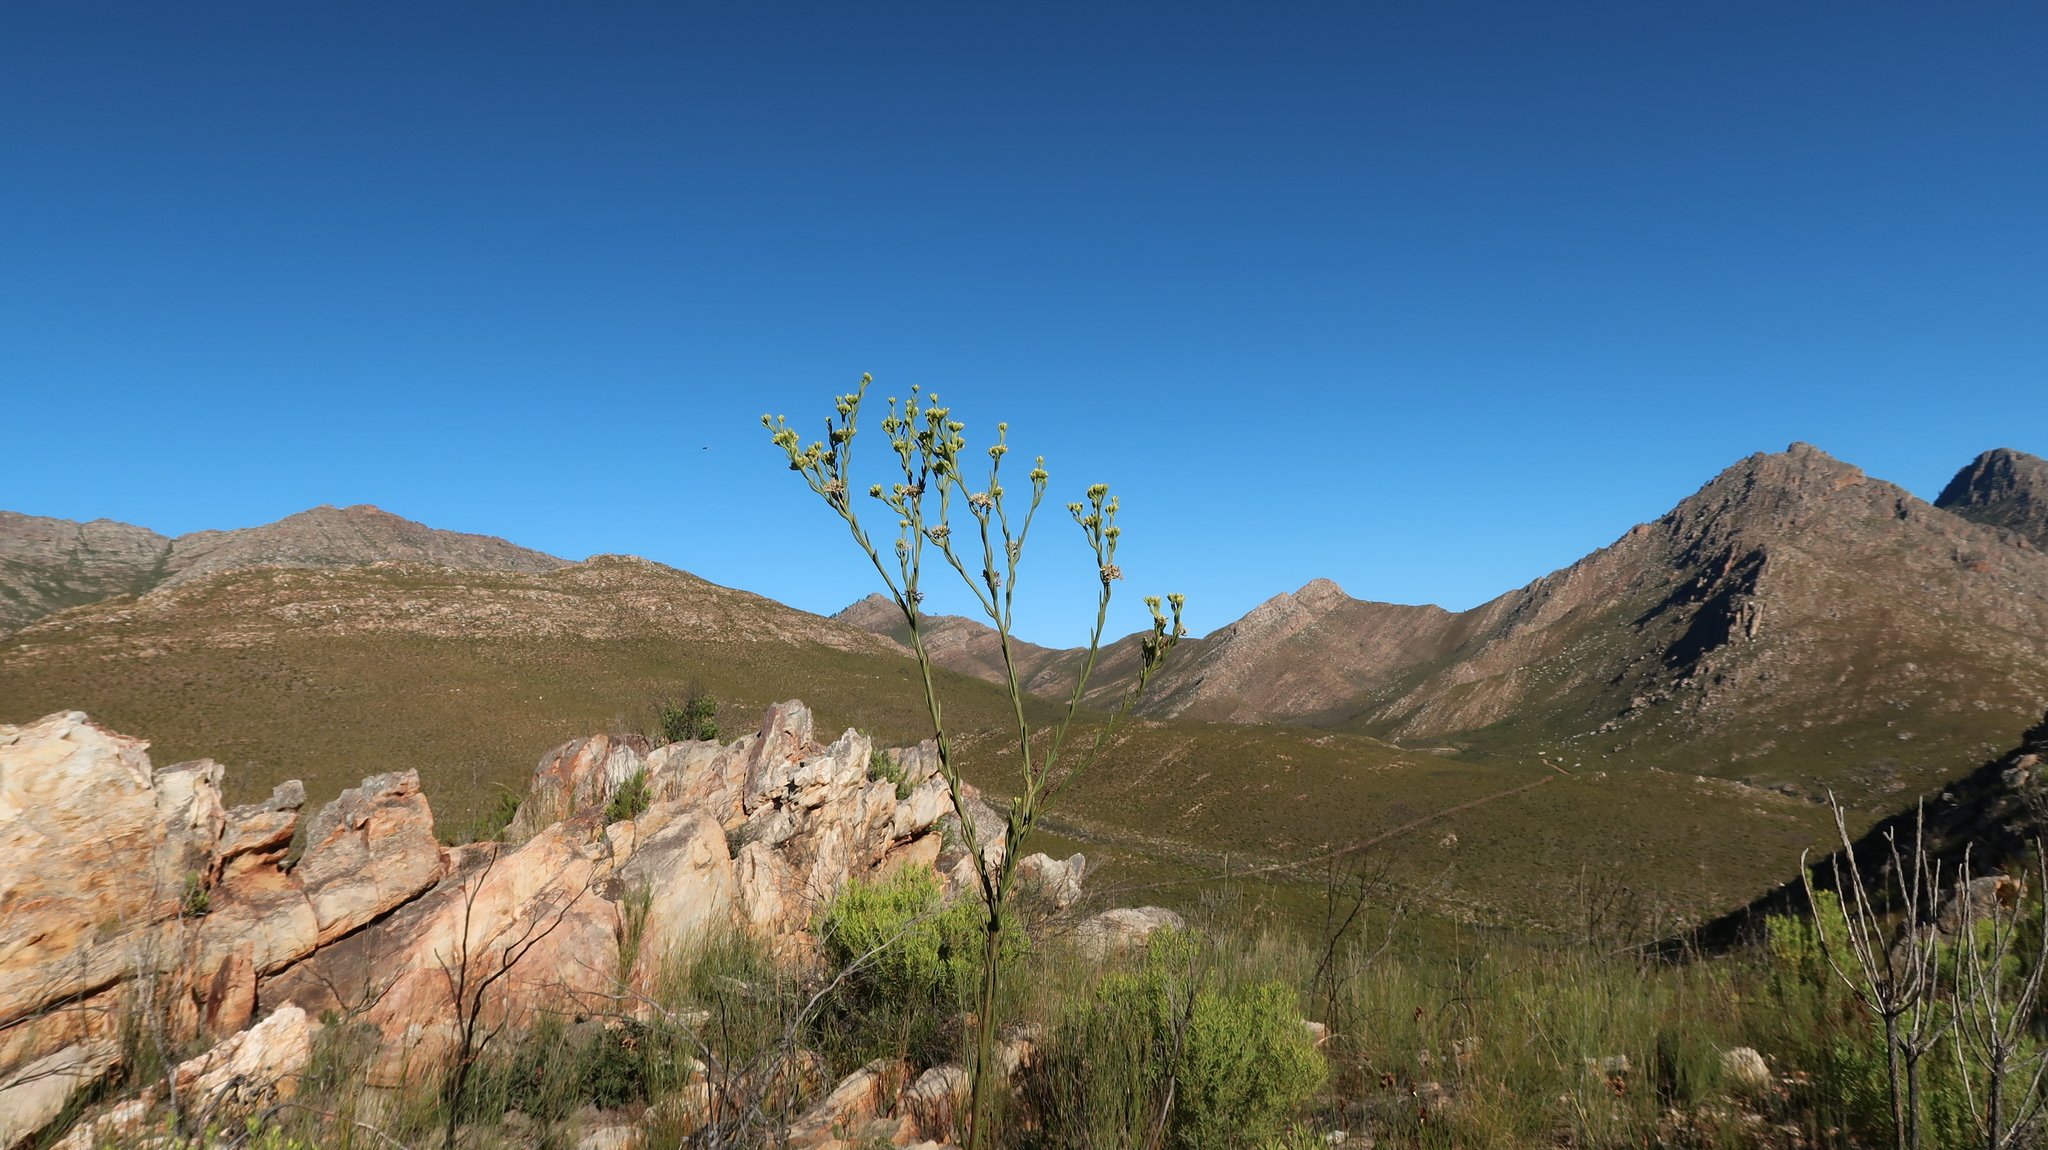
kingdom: Plantae
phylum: Tracheophyta
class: Magnoliopsida
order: Santalales
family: Thesiaceae
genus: Thesium
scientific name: Thesium strictum
